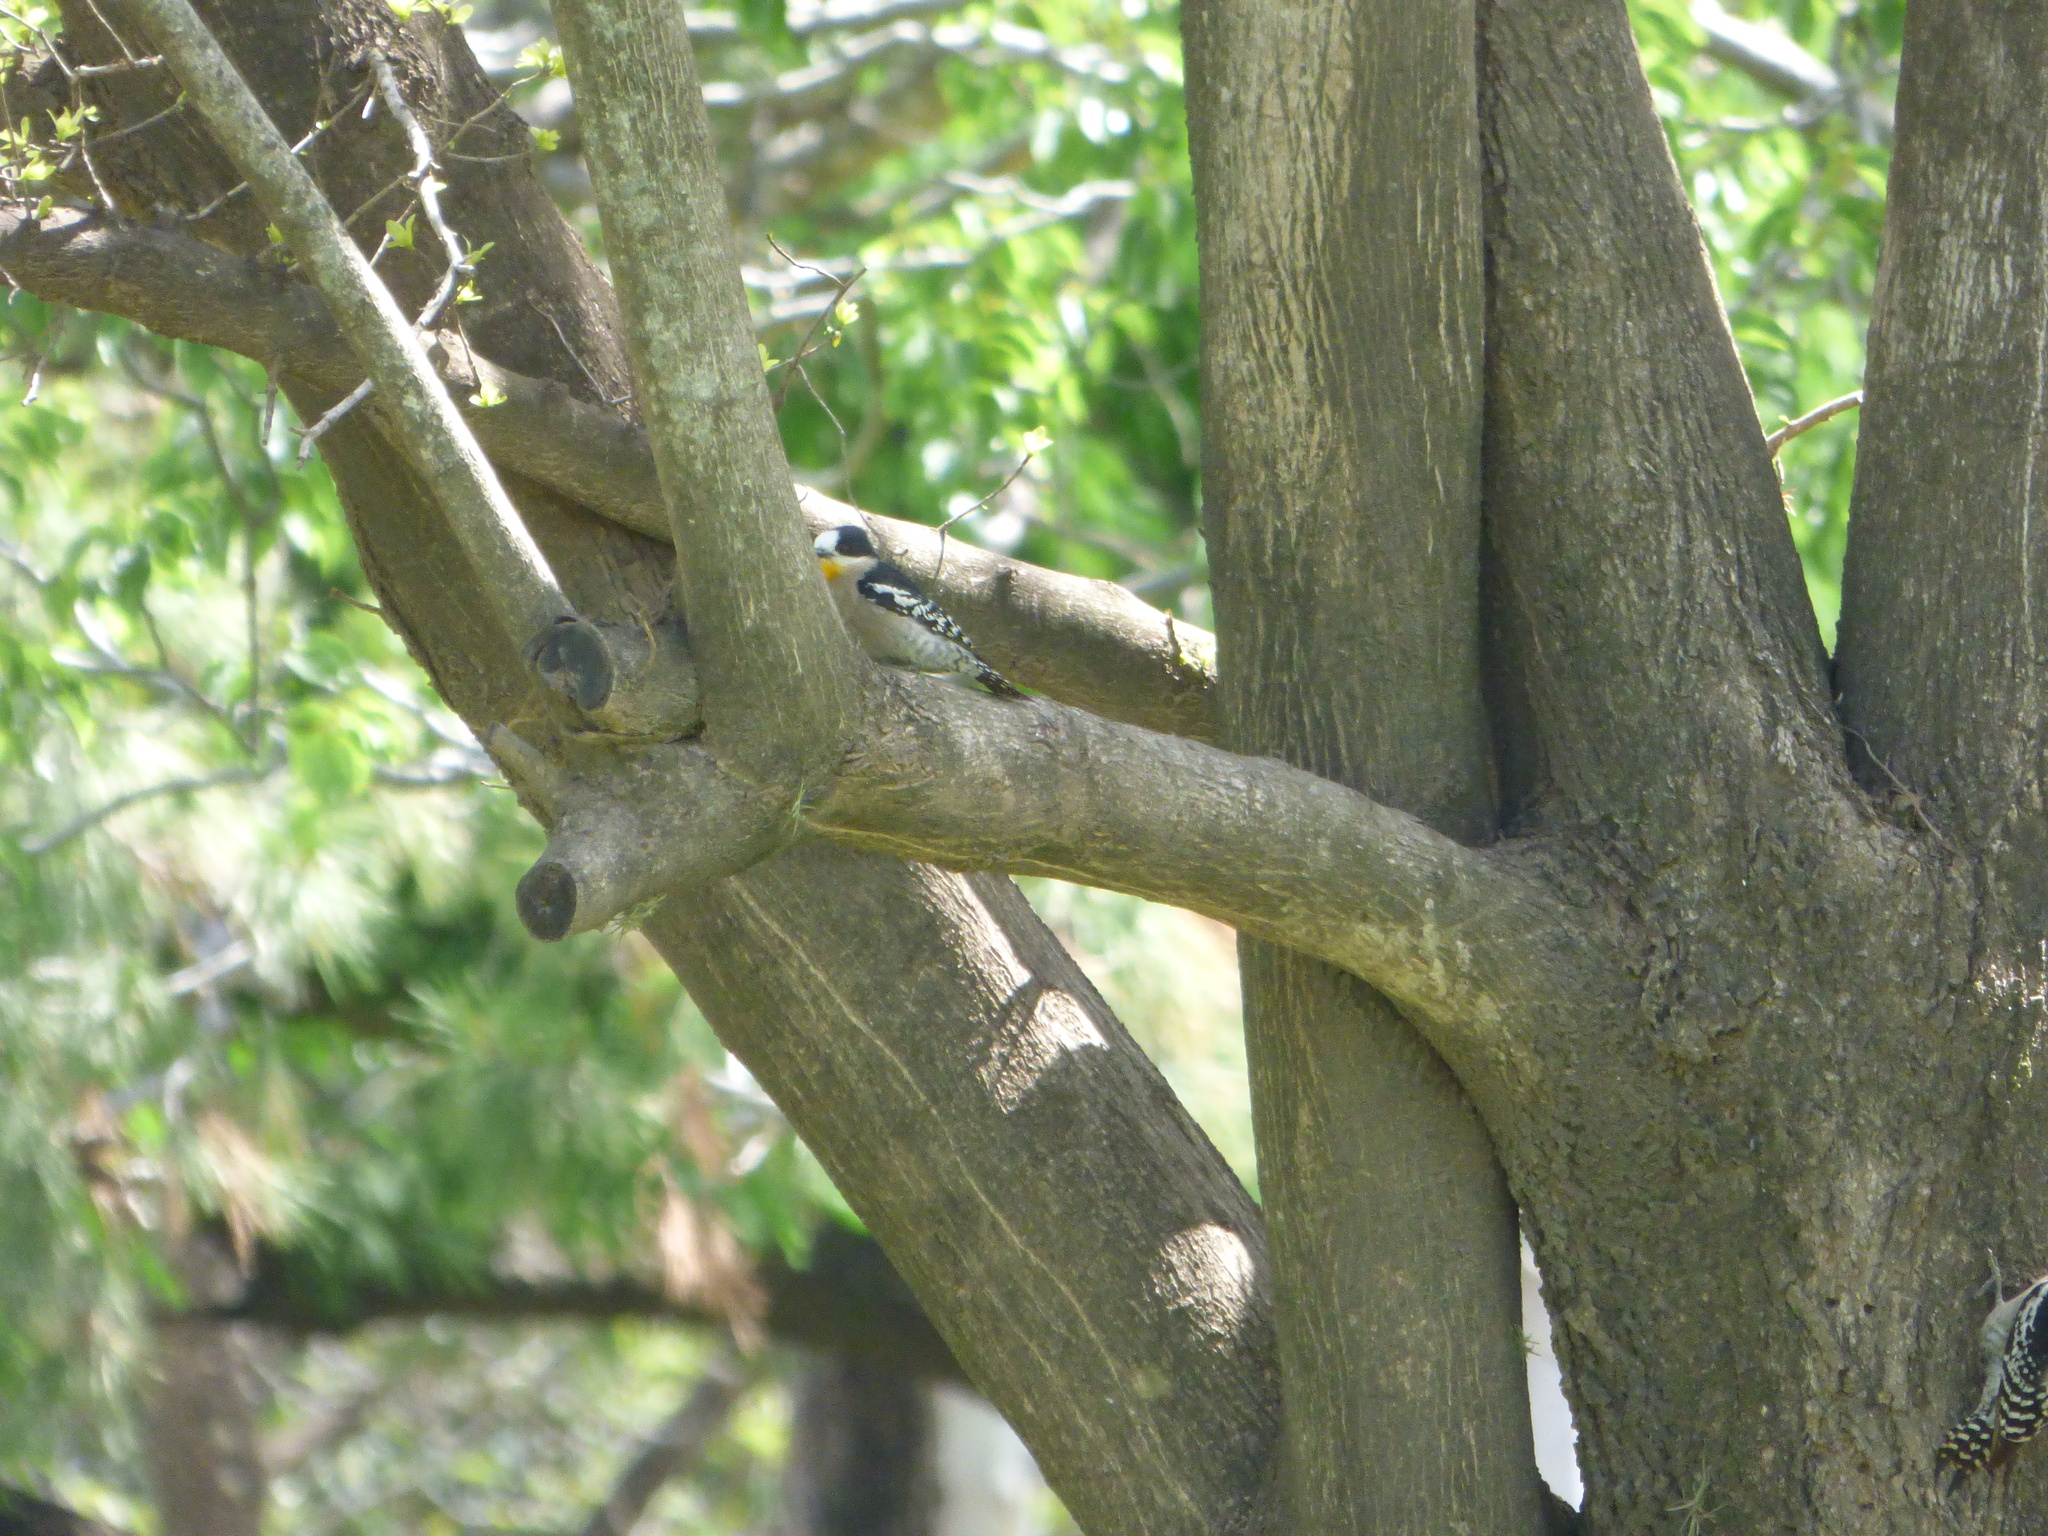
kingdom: Animalia
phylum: Chordata
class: Aves
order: Piciformes
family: Picidae
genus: Melanerpes
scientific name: Melanerpes cactorum
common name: White-fronted woodpecker
